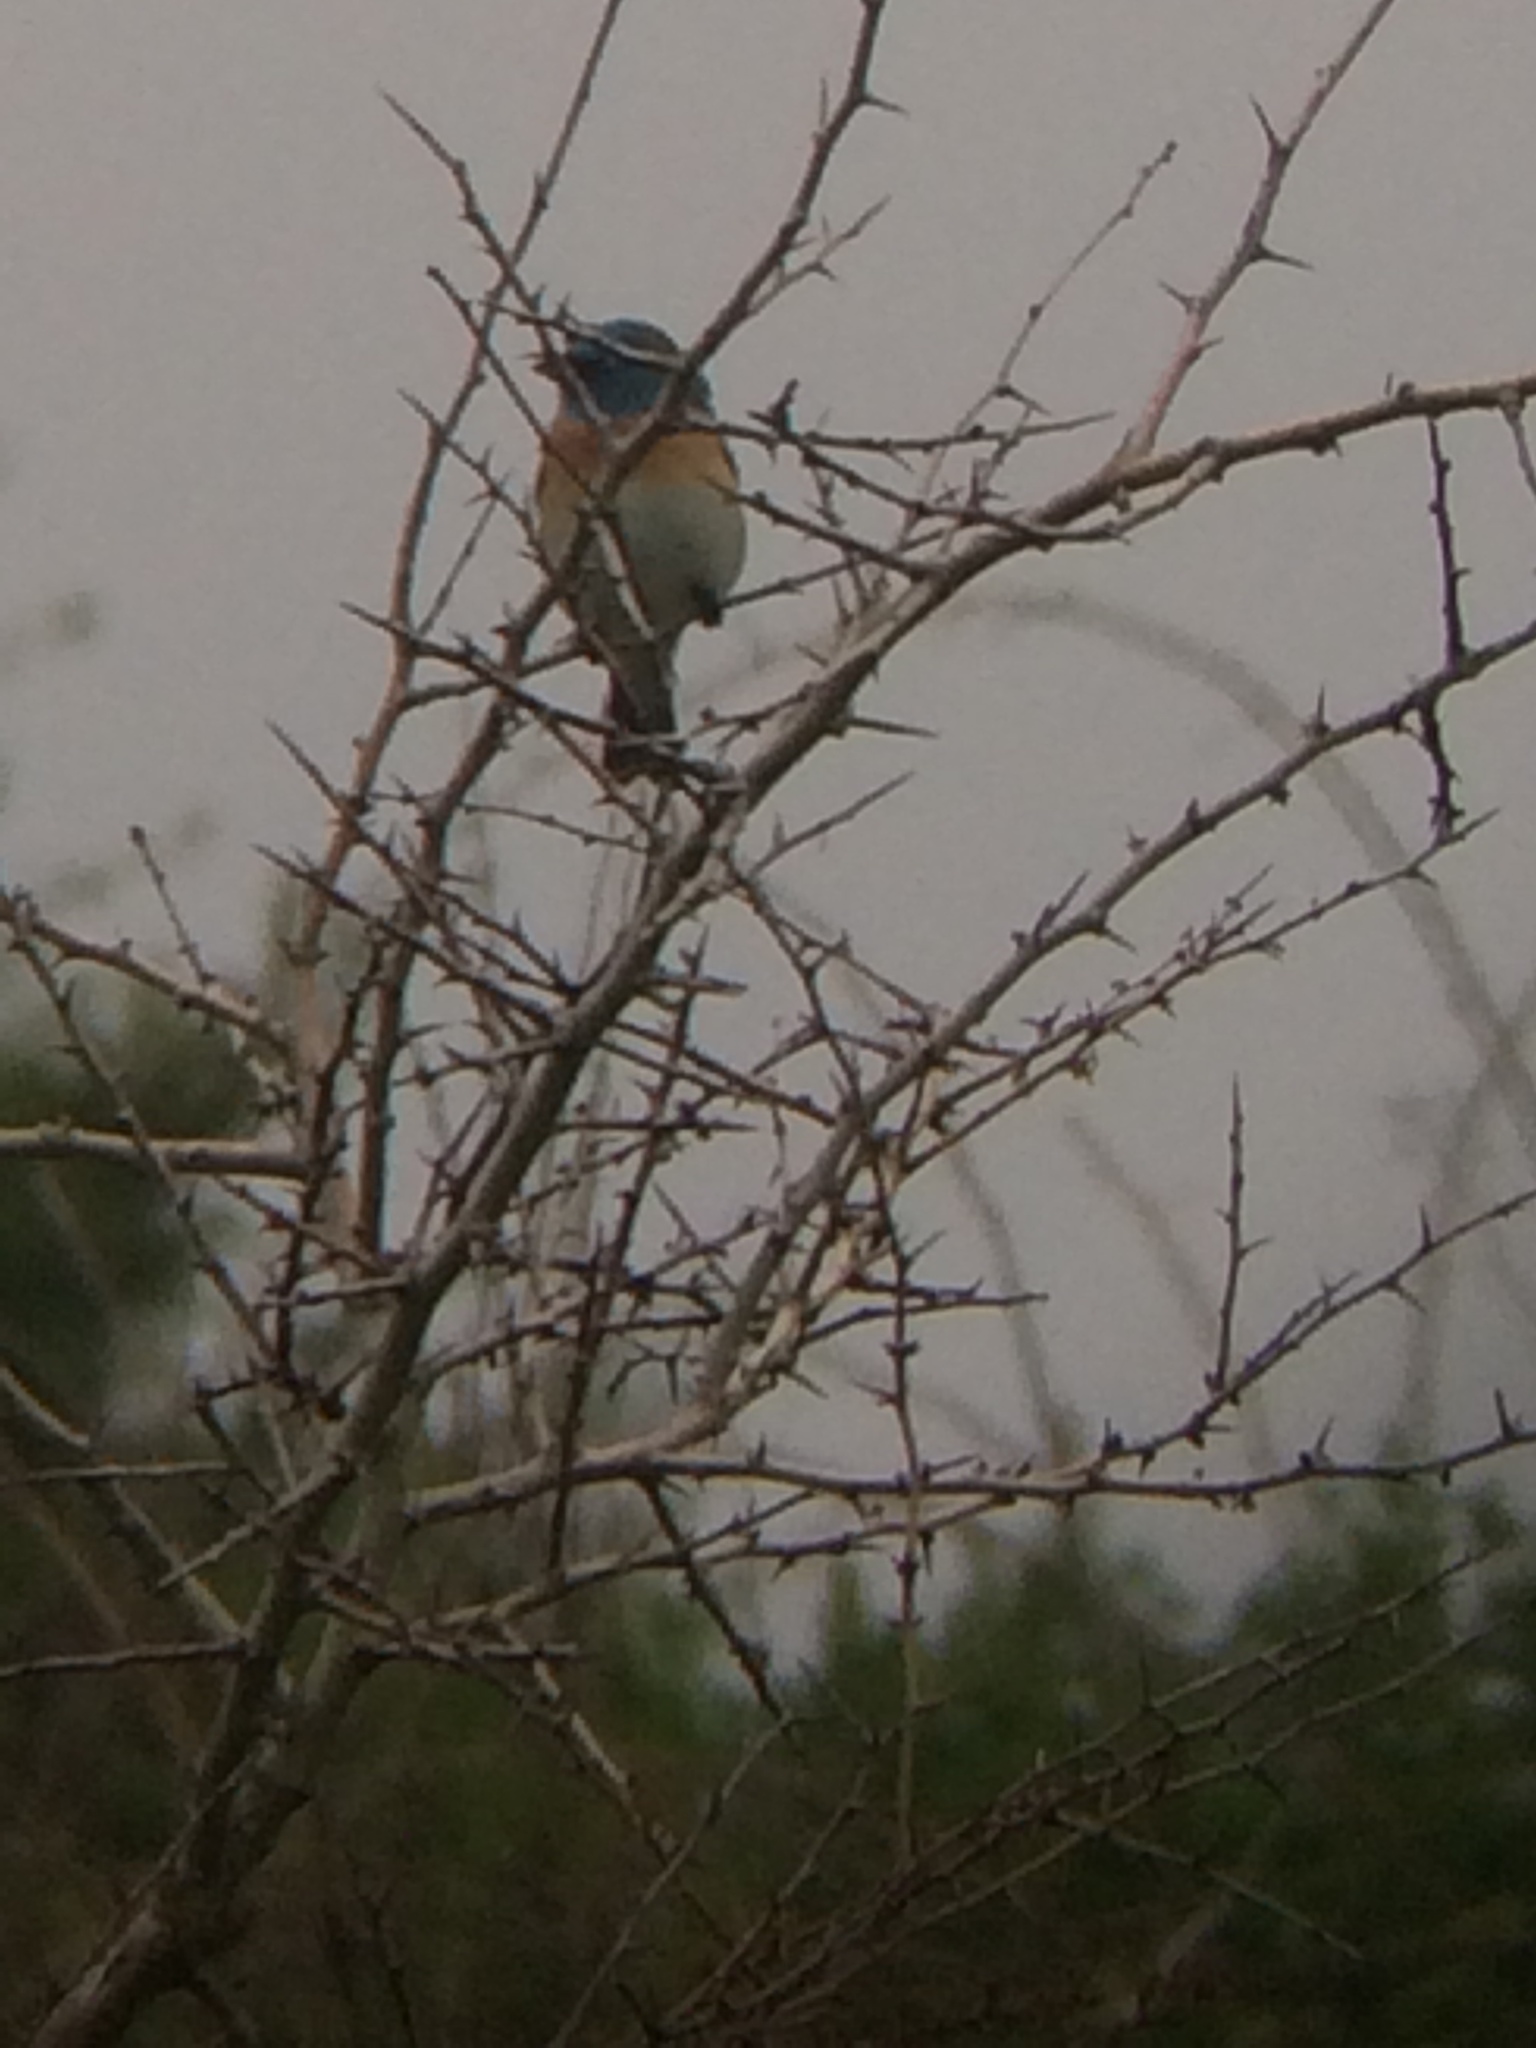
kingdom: Animalia
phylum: Chordata
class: Aves
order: Passeriformes
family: Cardinalidae
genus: Passerina
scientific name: Passerina amoena
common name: Lazuli bunting
